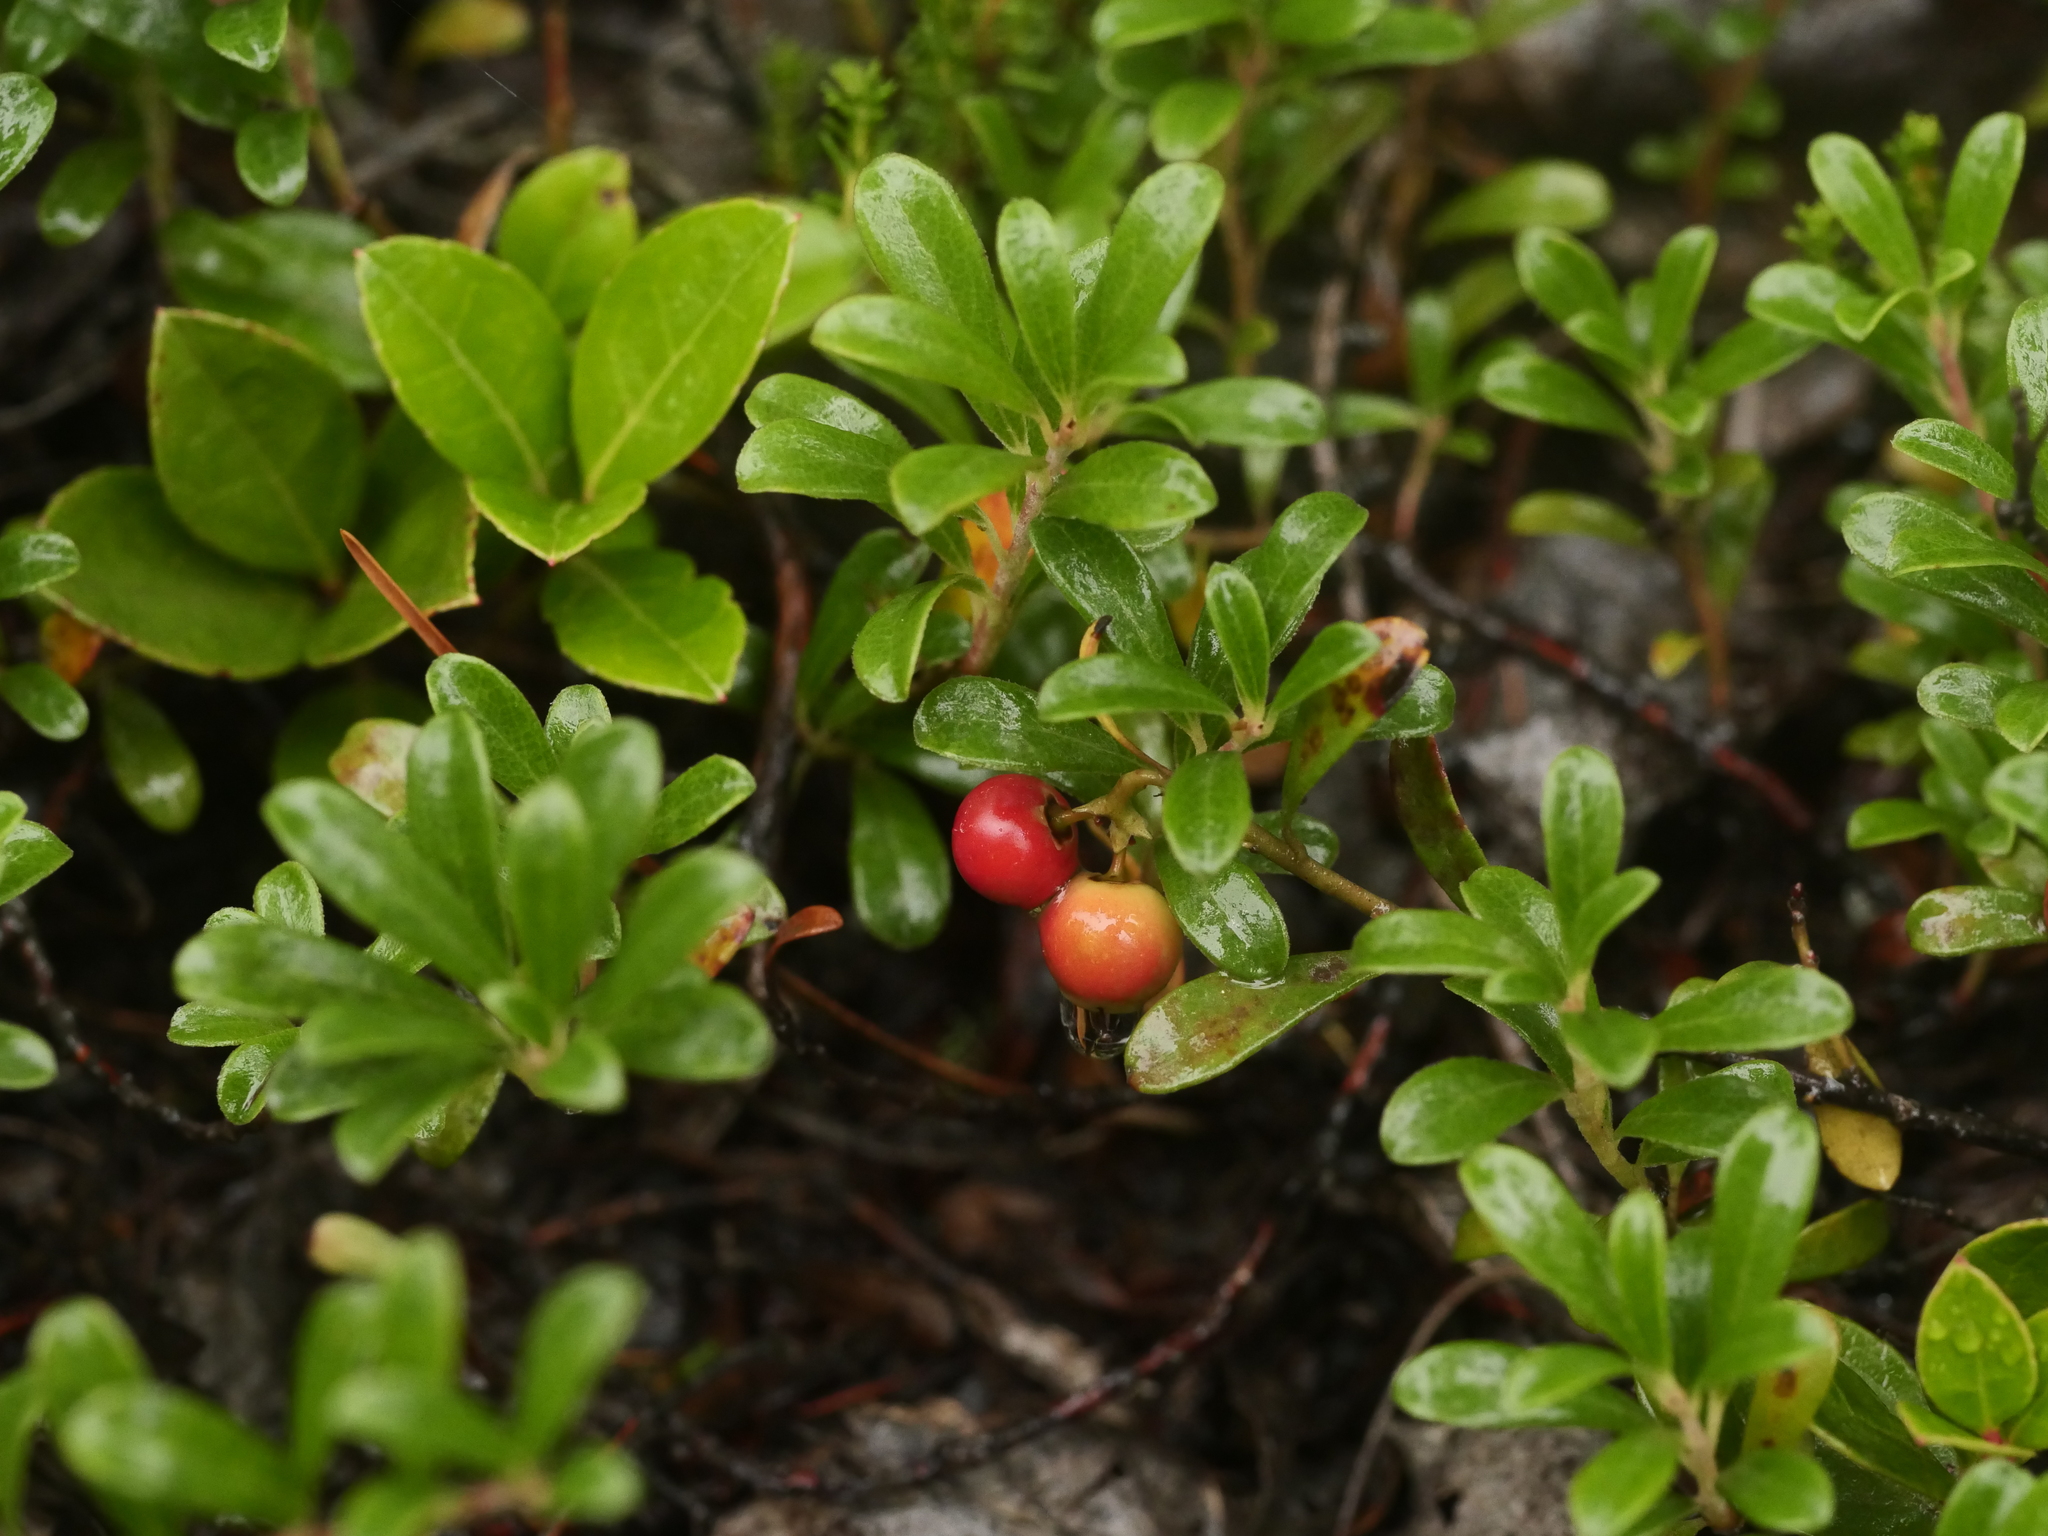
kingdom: Plantae
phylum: Tracheophyta
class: Magnoliopsida
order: Ericales
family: Ericaceae
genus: Arctostaphylos
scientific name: Arctostaphylos uva-ursi
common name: Bearberry
